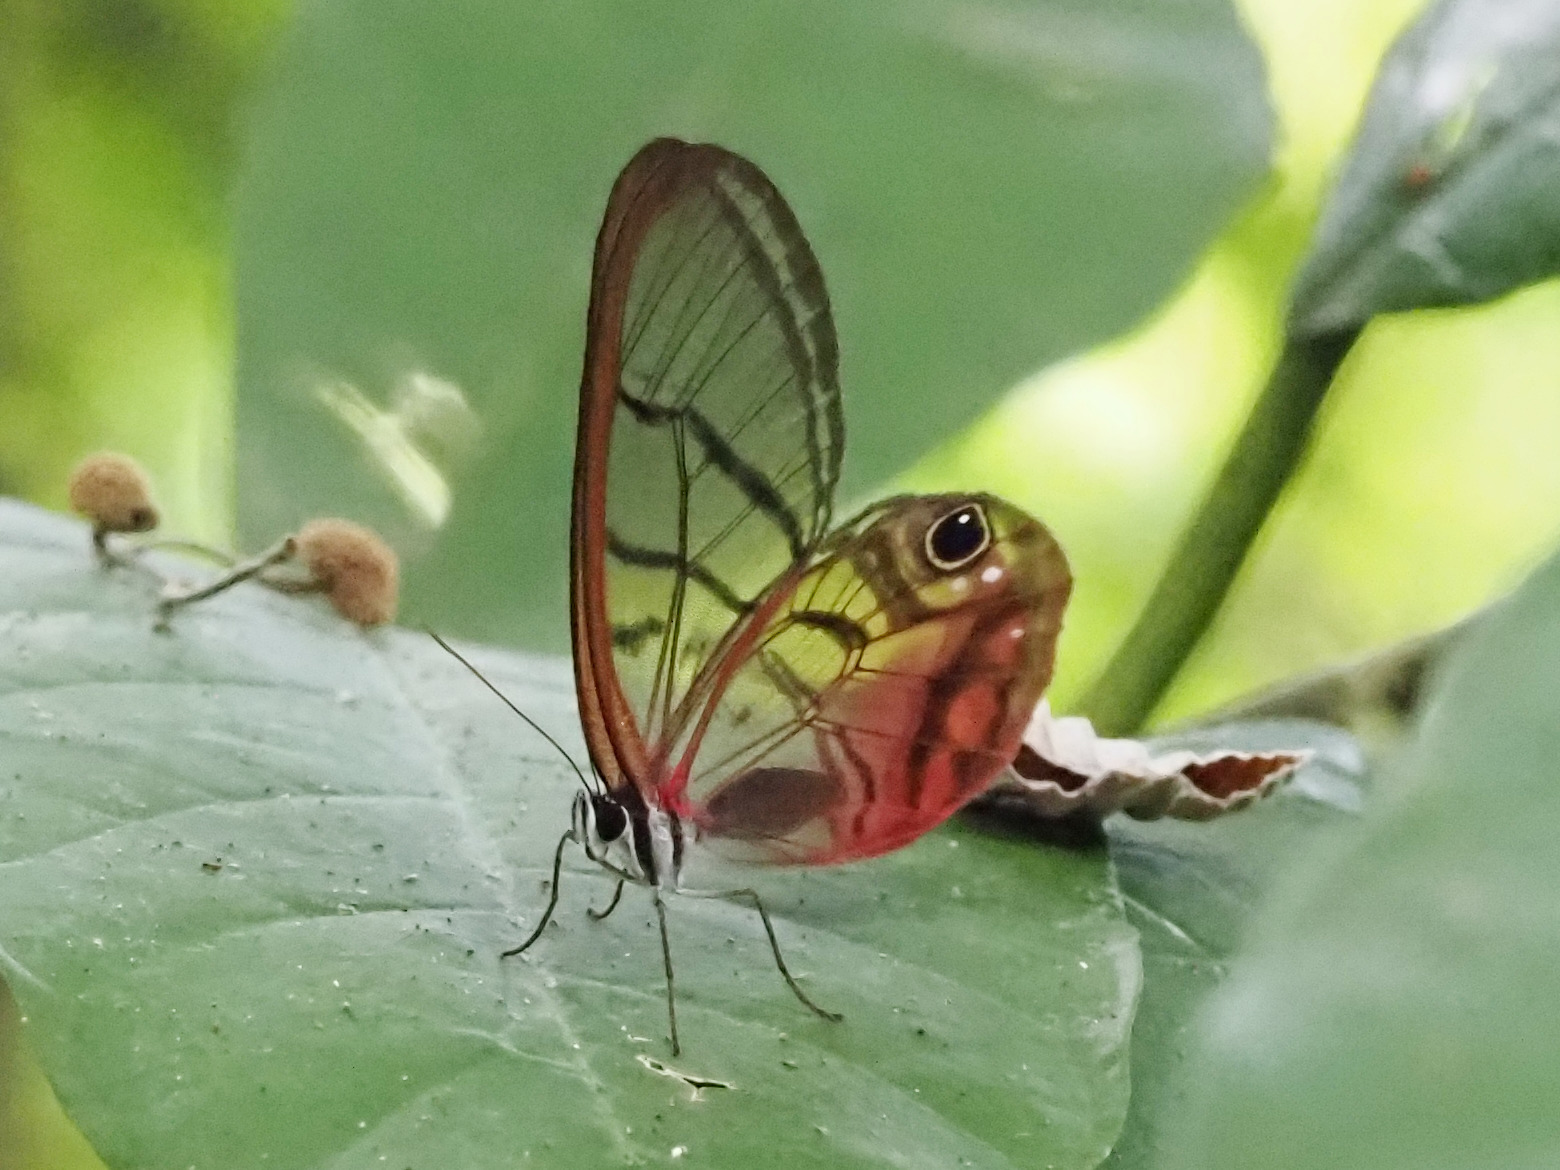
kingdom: Animalia
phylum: Arthropoda
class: Insecta
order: Lepidoptera
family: Nymphalidae
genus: Cithaerias
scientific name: Cithaerias pireta
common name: Rusted clearwing-satyr
